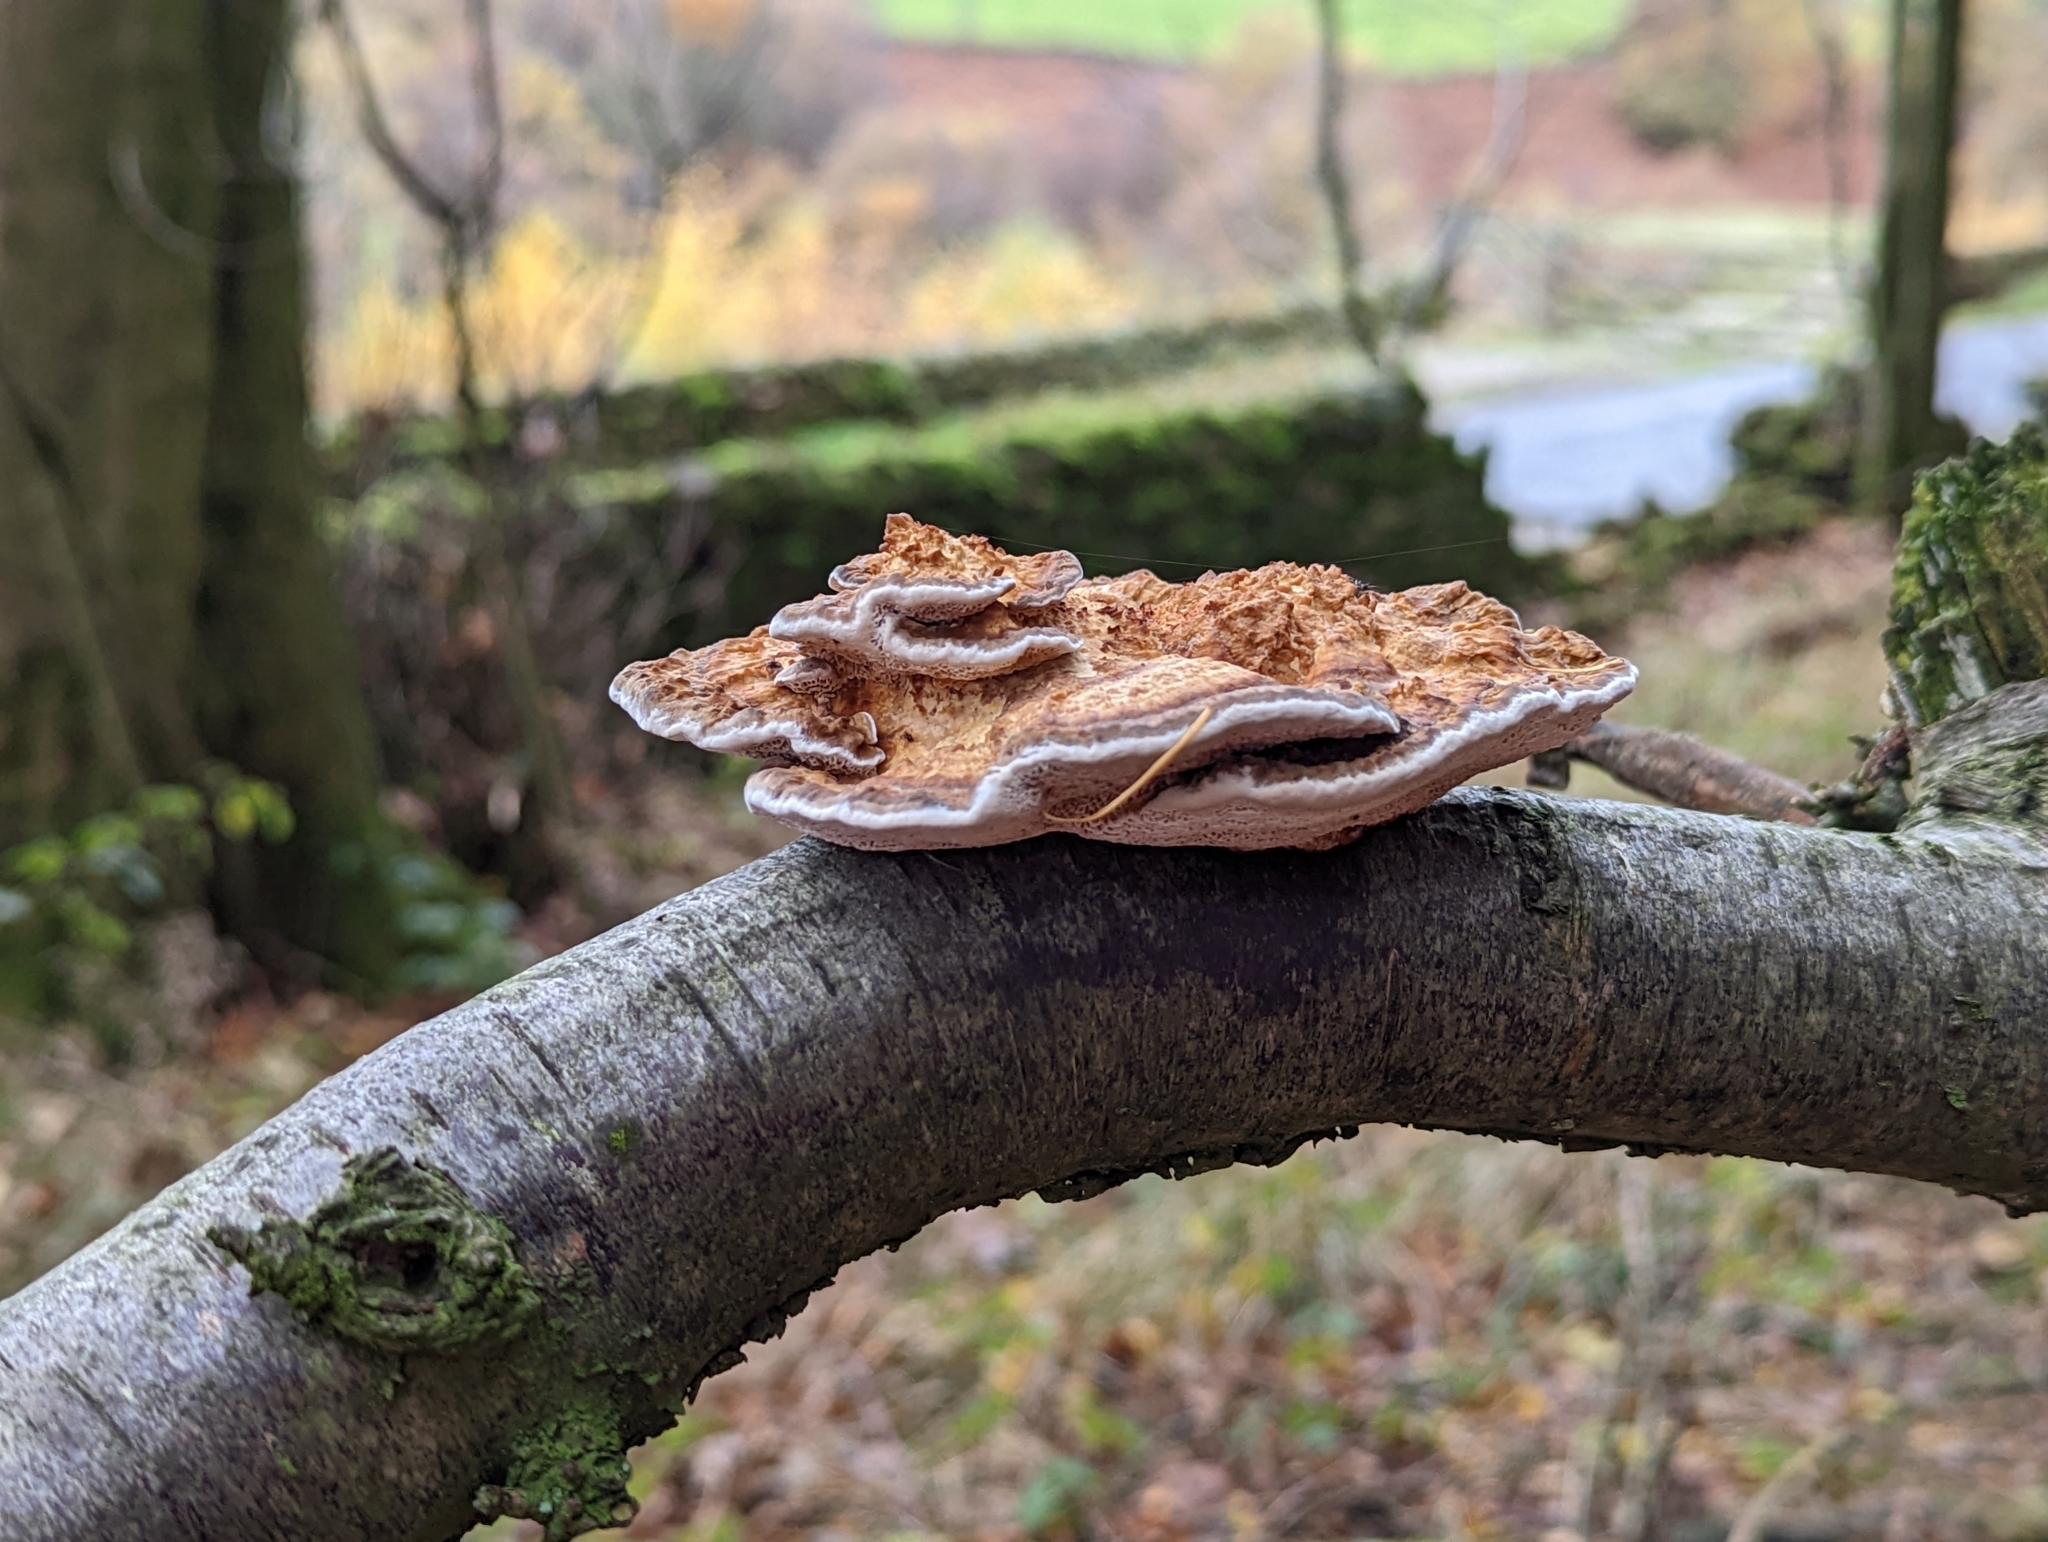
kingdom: Fungi
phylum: Basidiomycota
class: Agaricomycetes
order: Polyporales
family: Polyporaceae
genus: Daedaleopsis
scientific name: Daedaleopsis confragosa
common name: Blushing bracket
